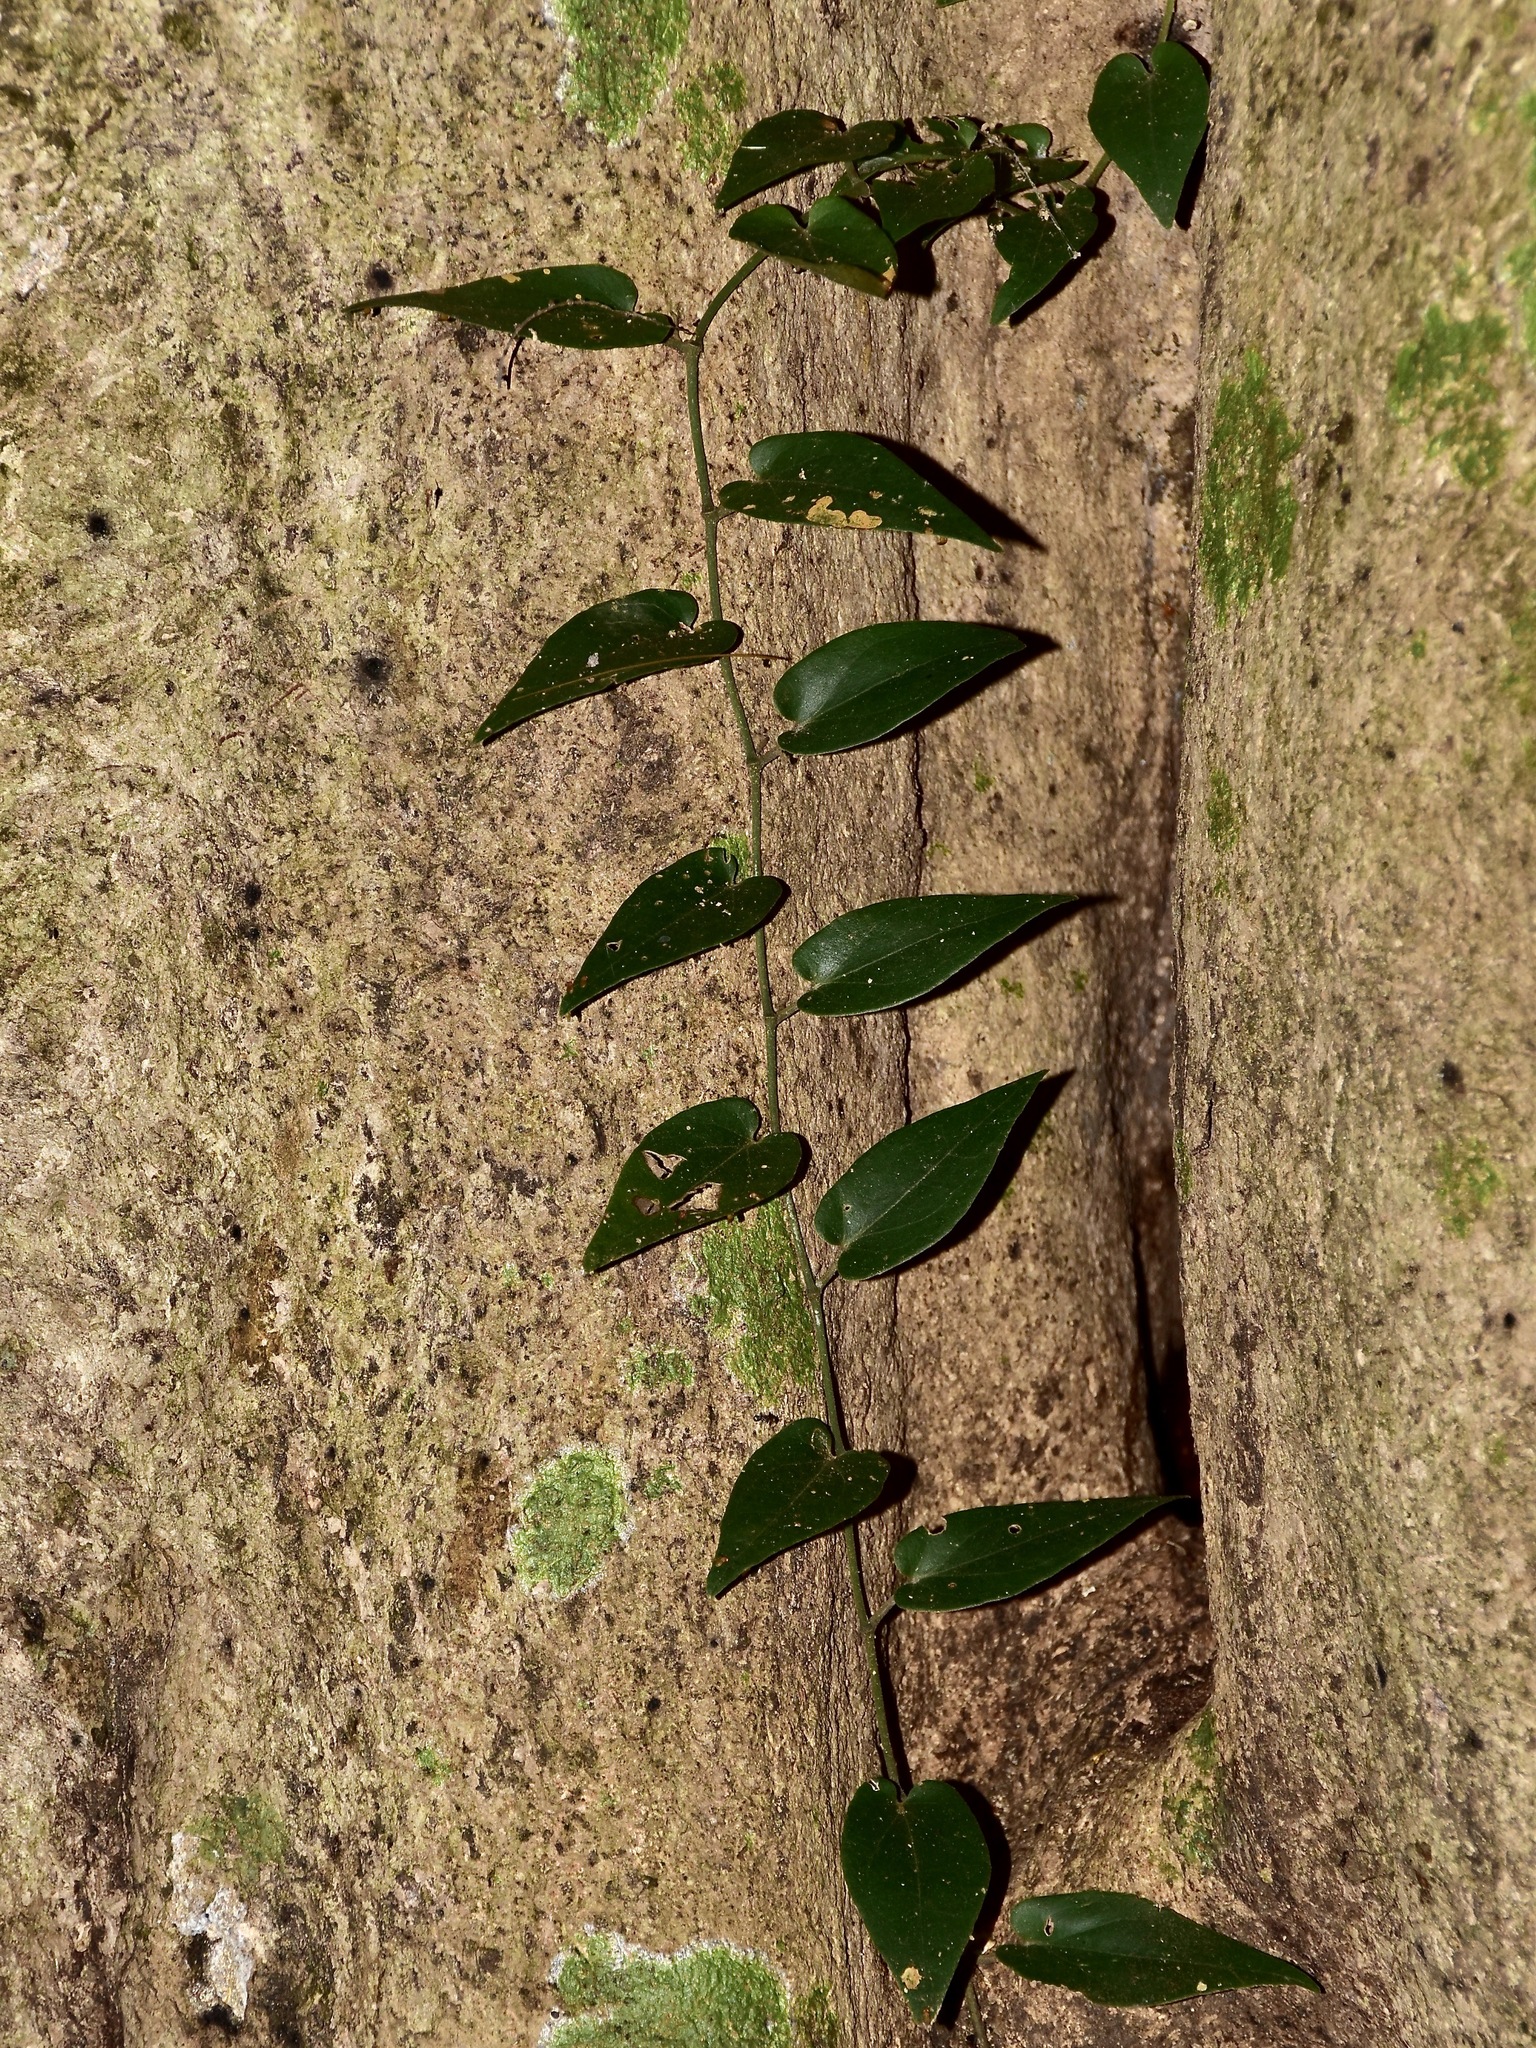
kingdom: Plantae
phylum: Tracheophyta
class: Magnoliopsida
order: Piperales
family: Piperaceae
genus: Piper
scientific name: Piper crassipes
